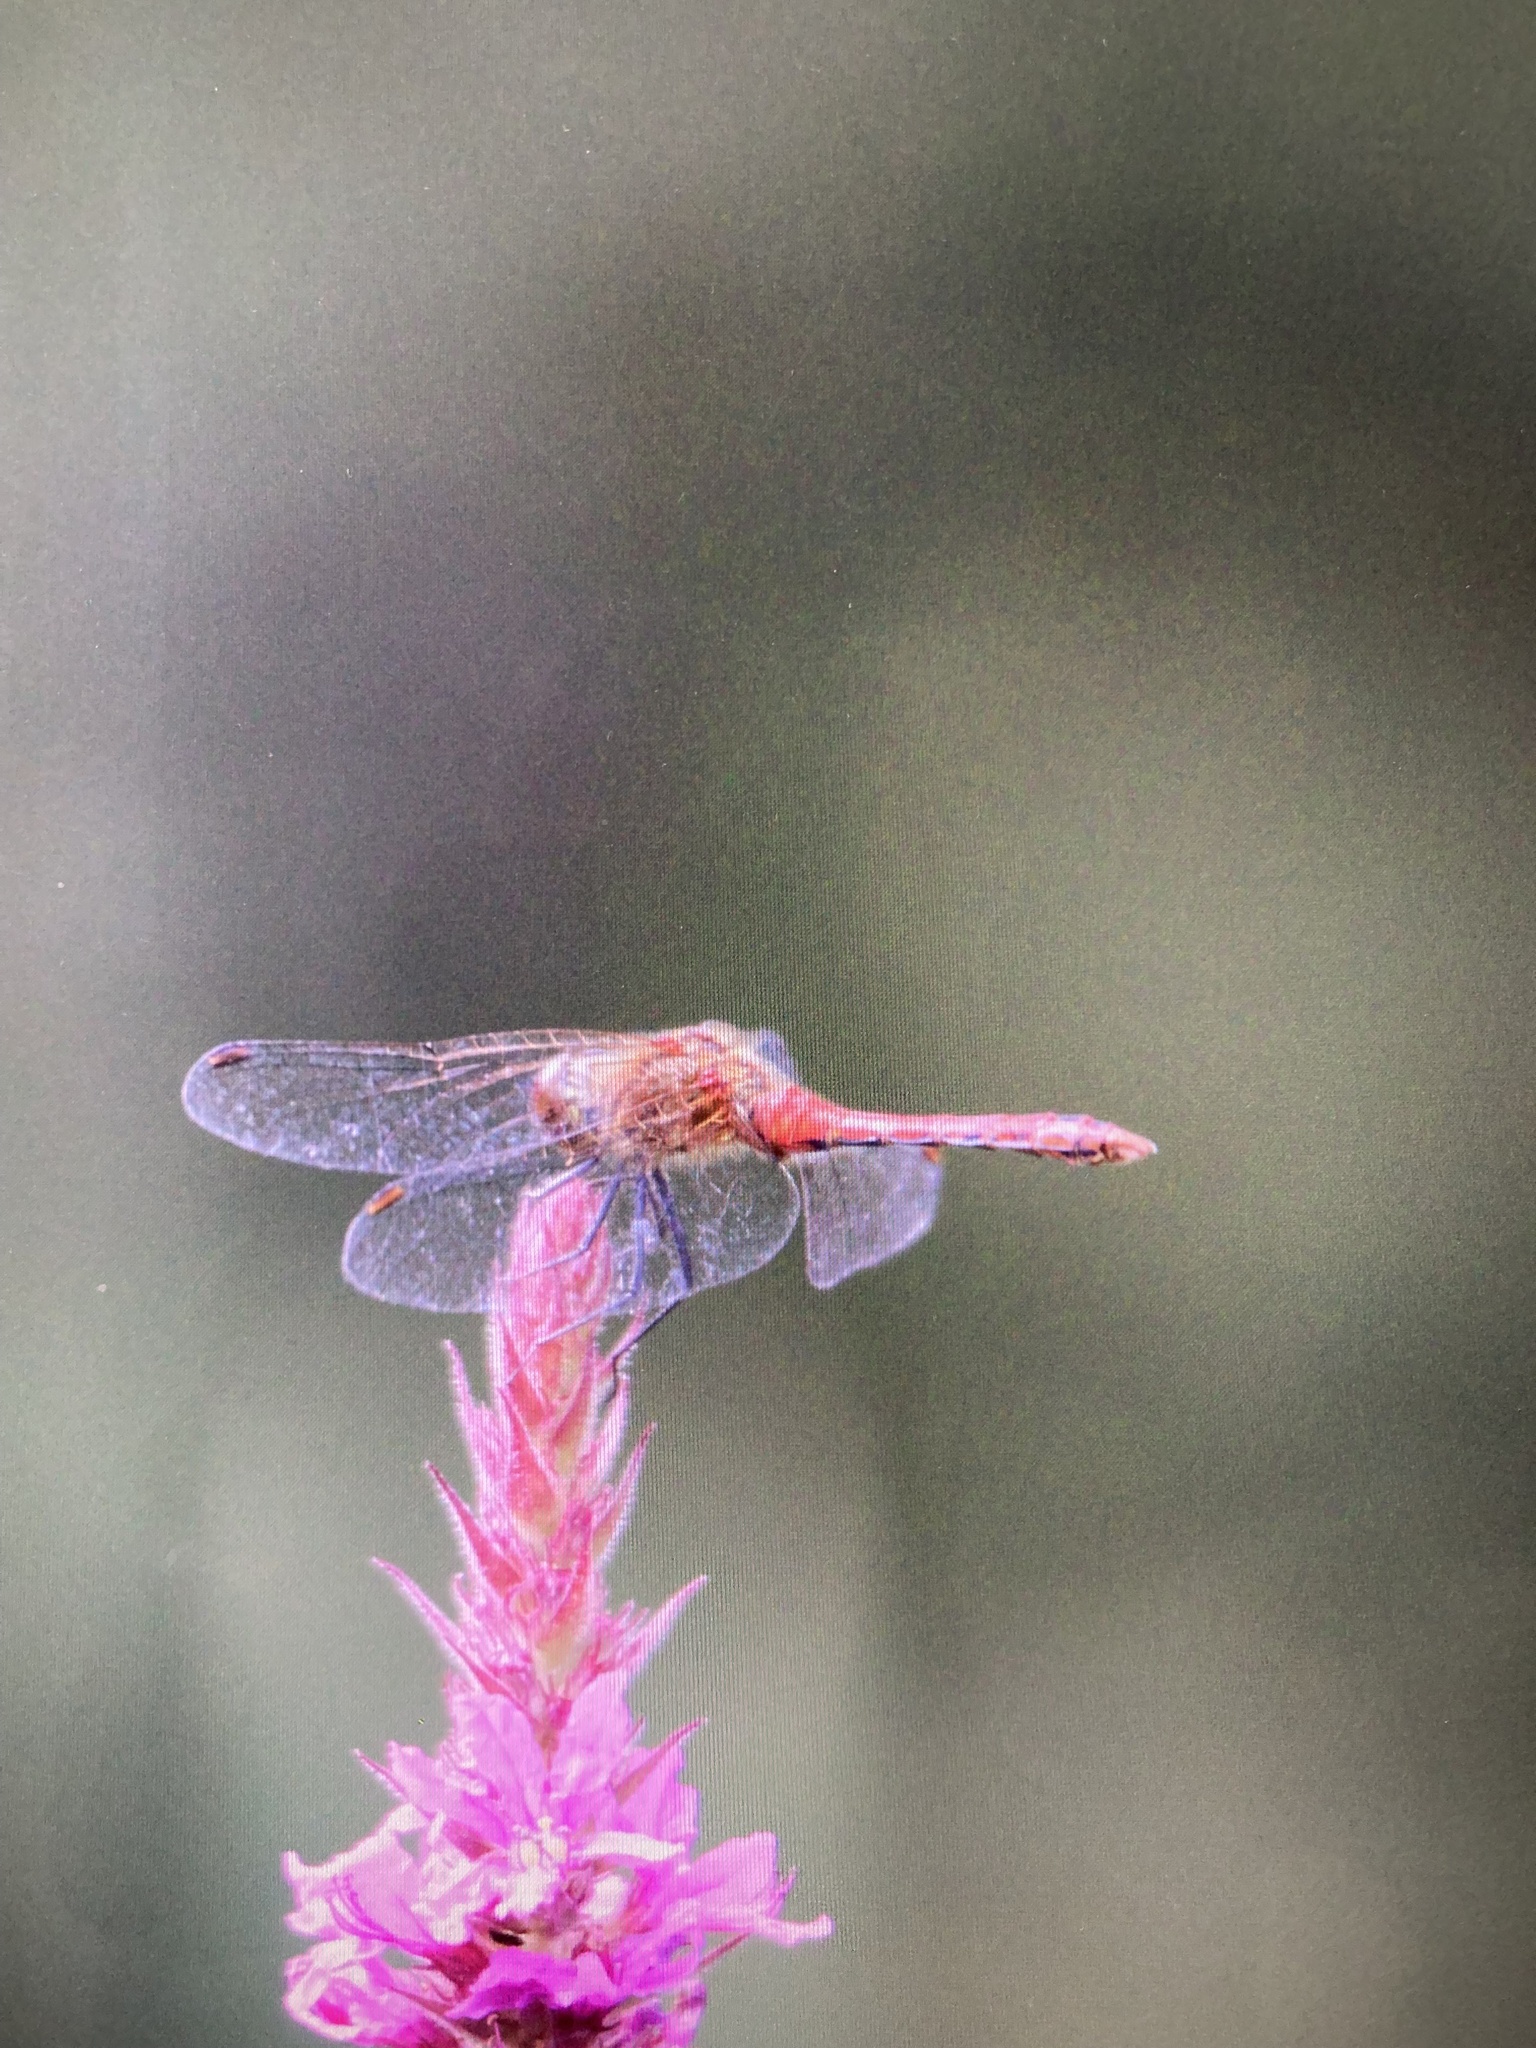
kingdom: Animalia
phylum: Arthropoda
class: Insecta
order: Odonata
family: Libellulidae
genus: Sympetrum
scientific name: Sympetrum sanguineum
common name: Ruddy darter
